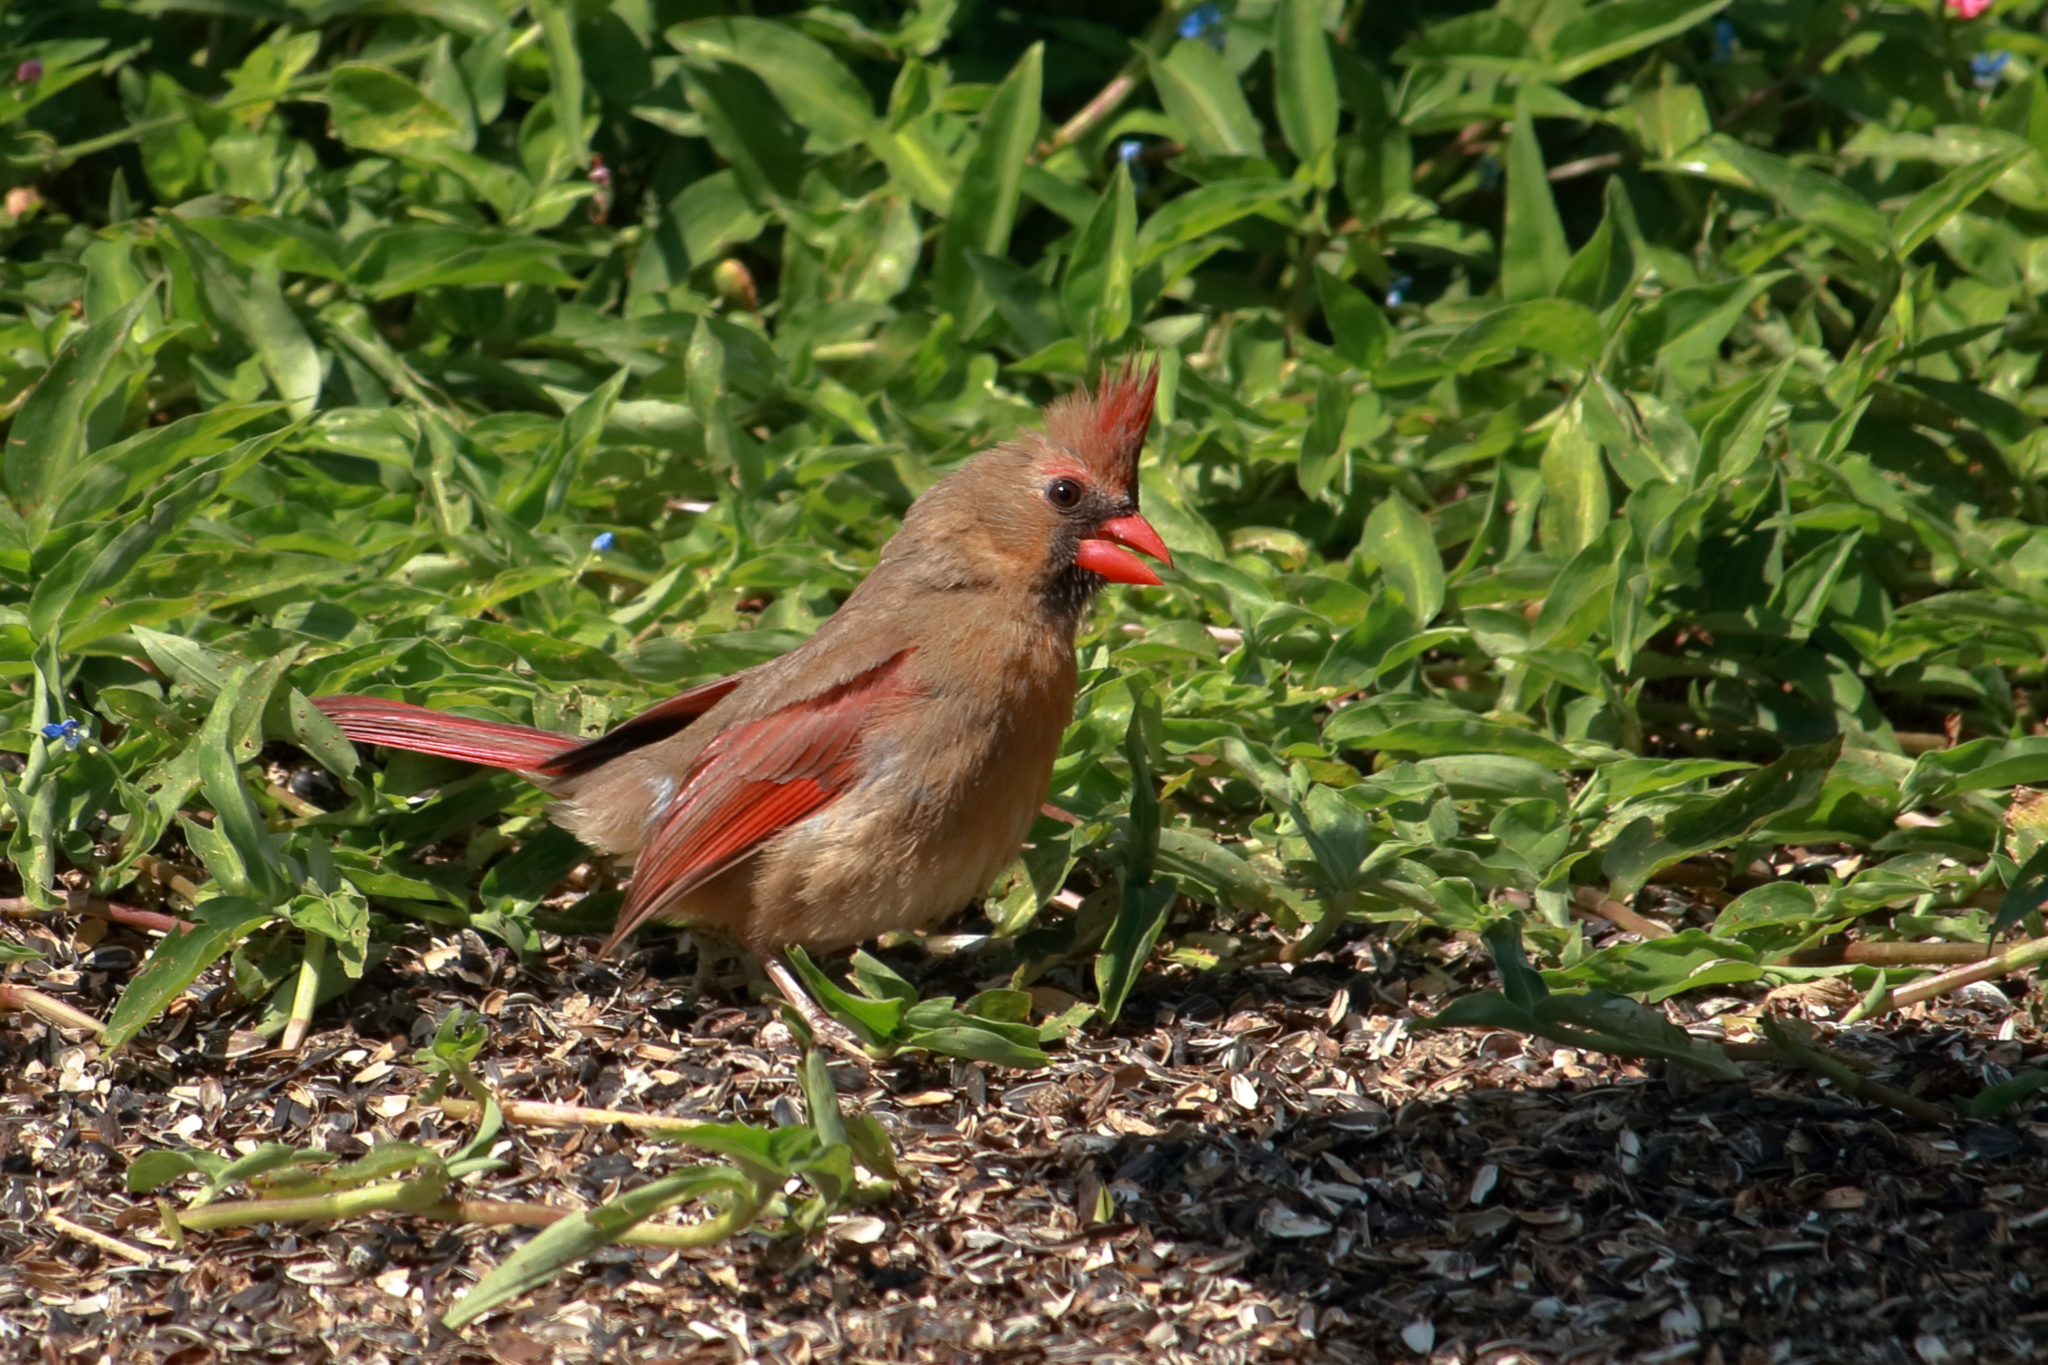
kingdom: Animalia
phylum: Chordata
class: Aves
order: Passeriformes
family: Cardinalidae
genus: Cardinalis
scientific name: Cardinalis cardinalis
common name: Northern cardinal
